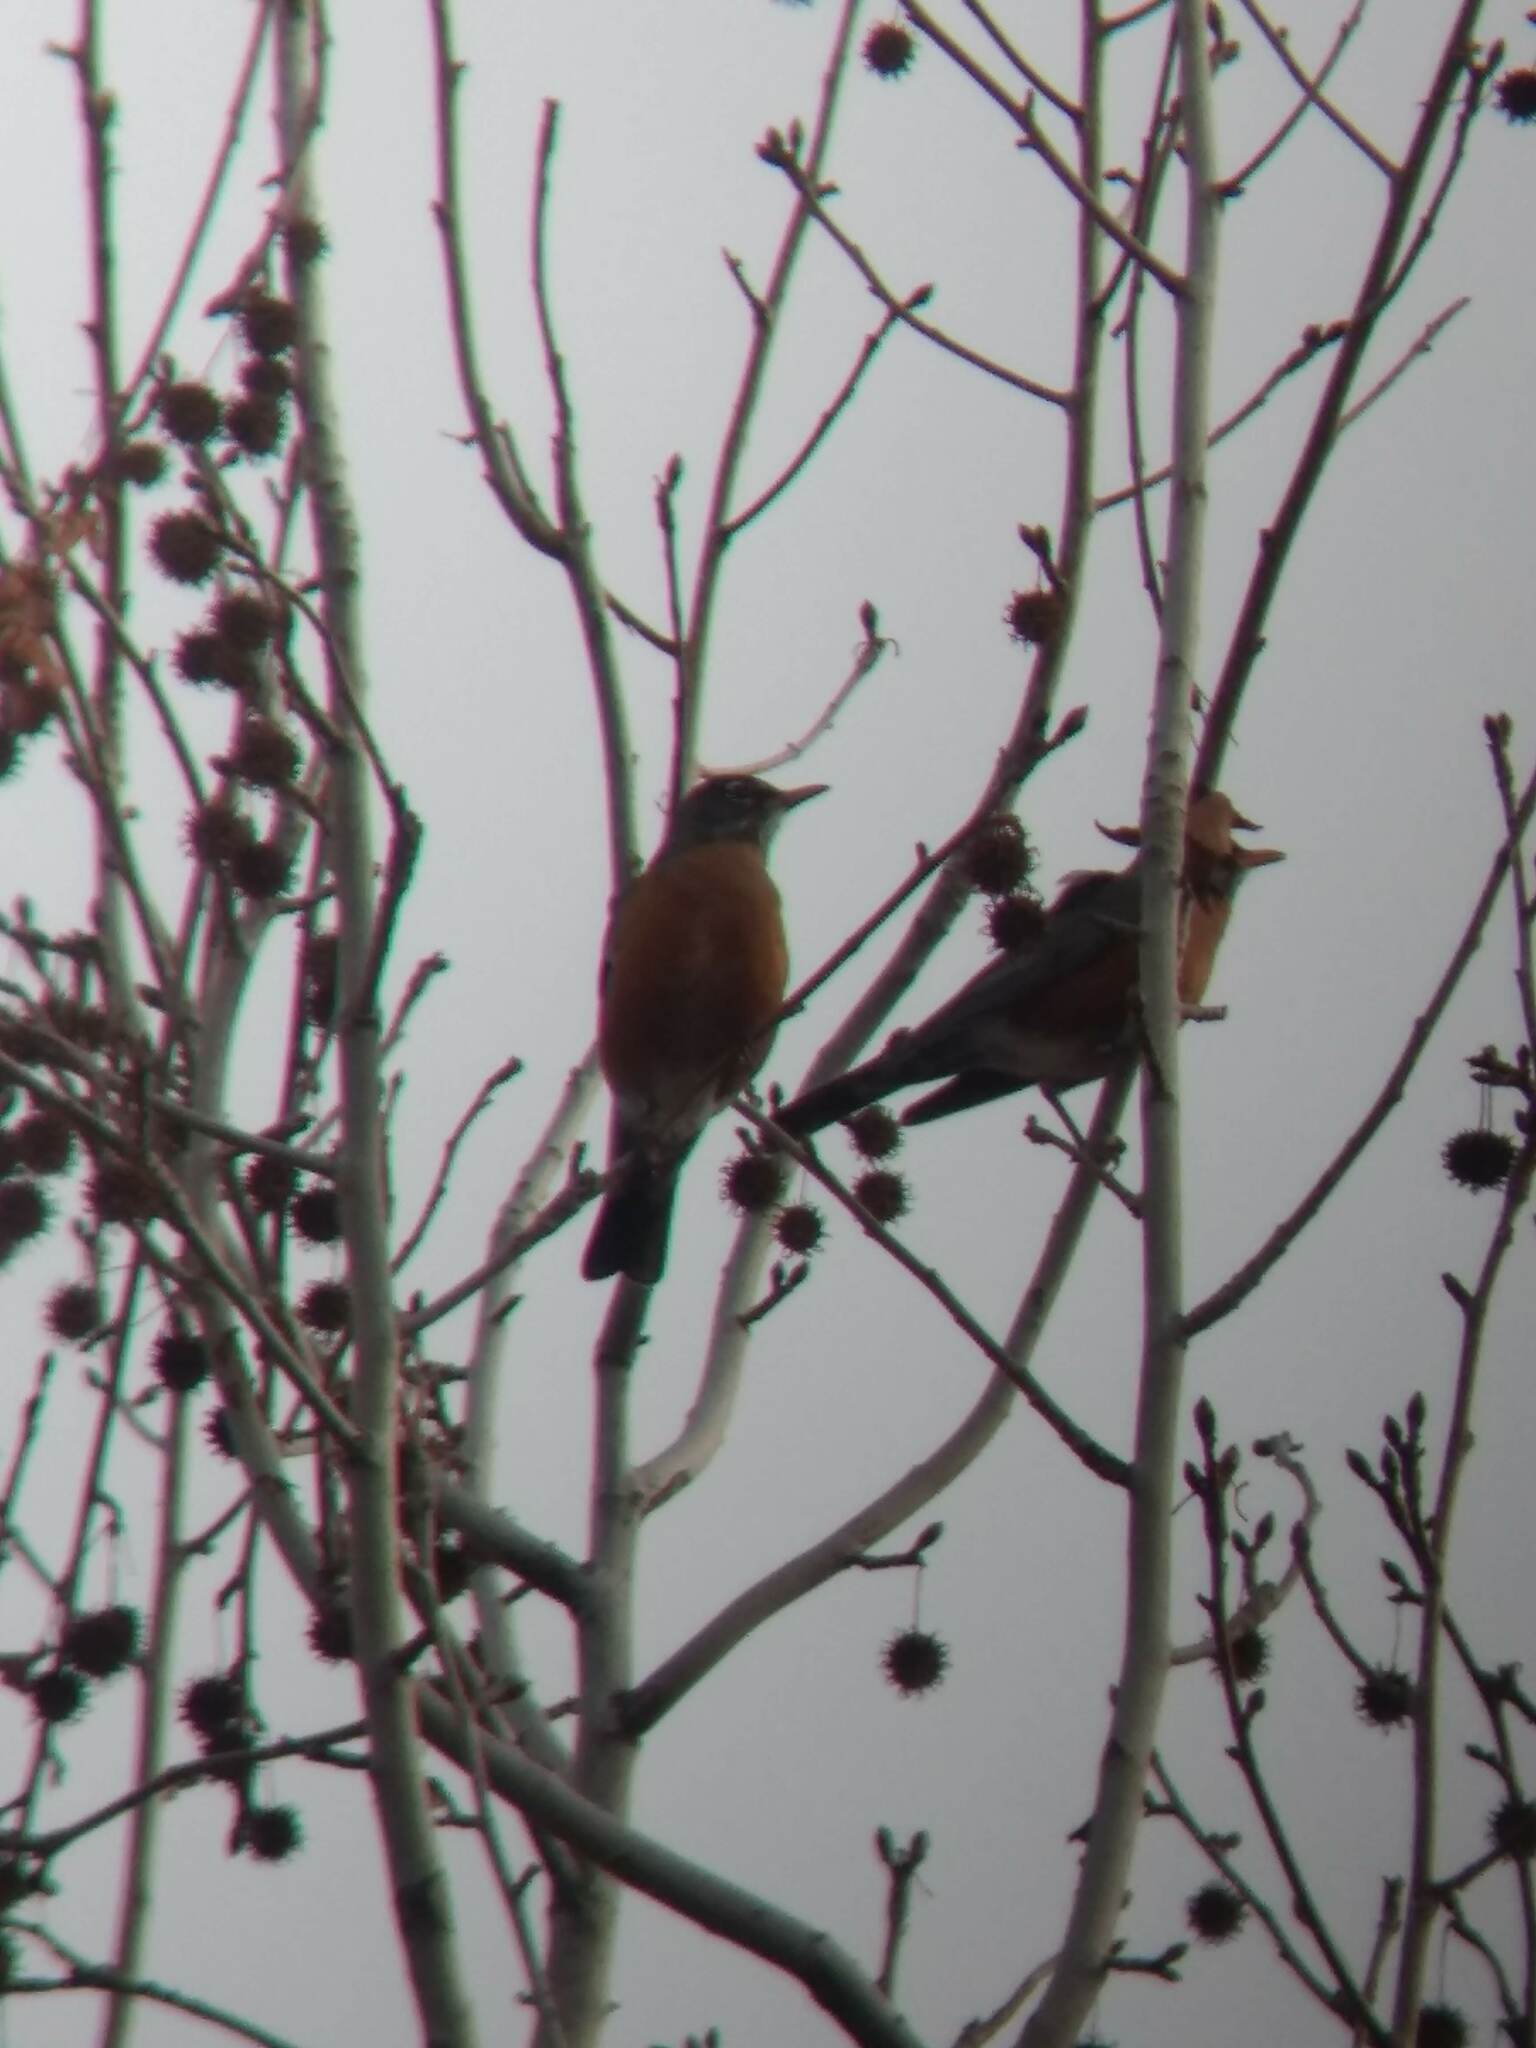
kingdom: Animalia
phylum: Chordata
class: Aves
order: Passeriformes
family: Turdidae
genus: Turdus
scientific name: Turdus migratorius
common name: American robin
